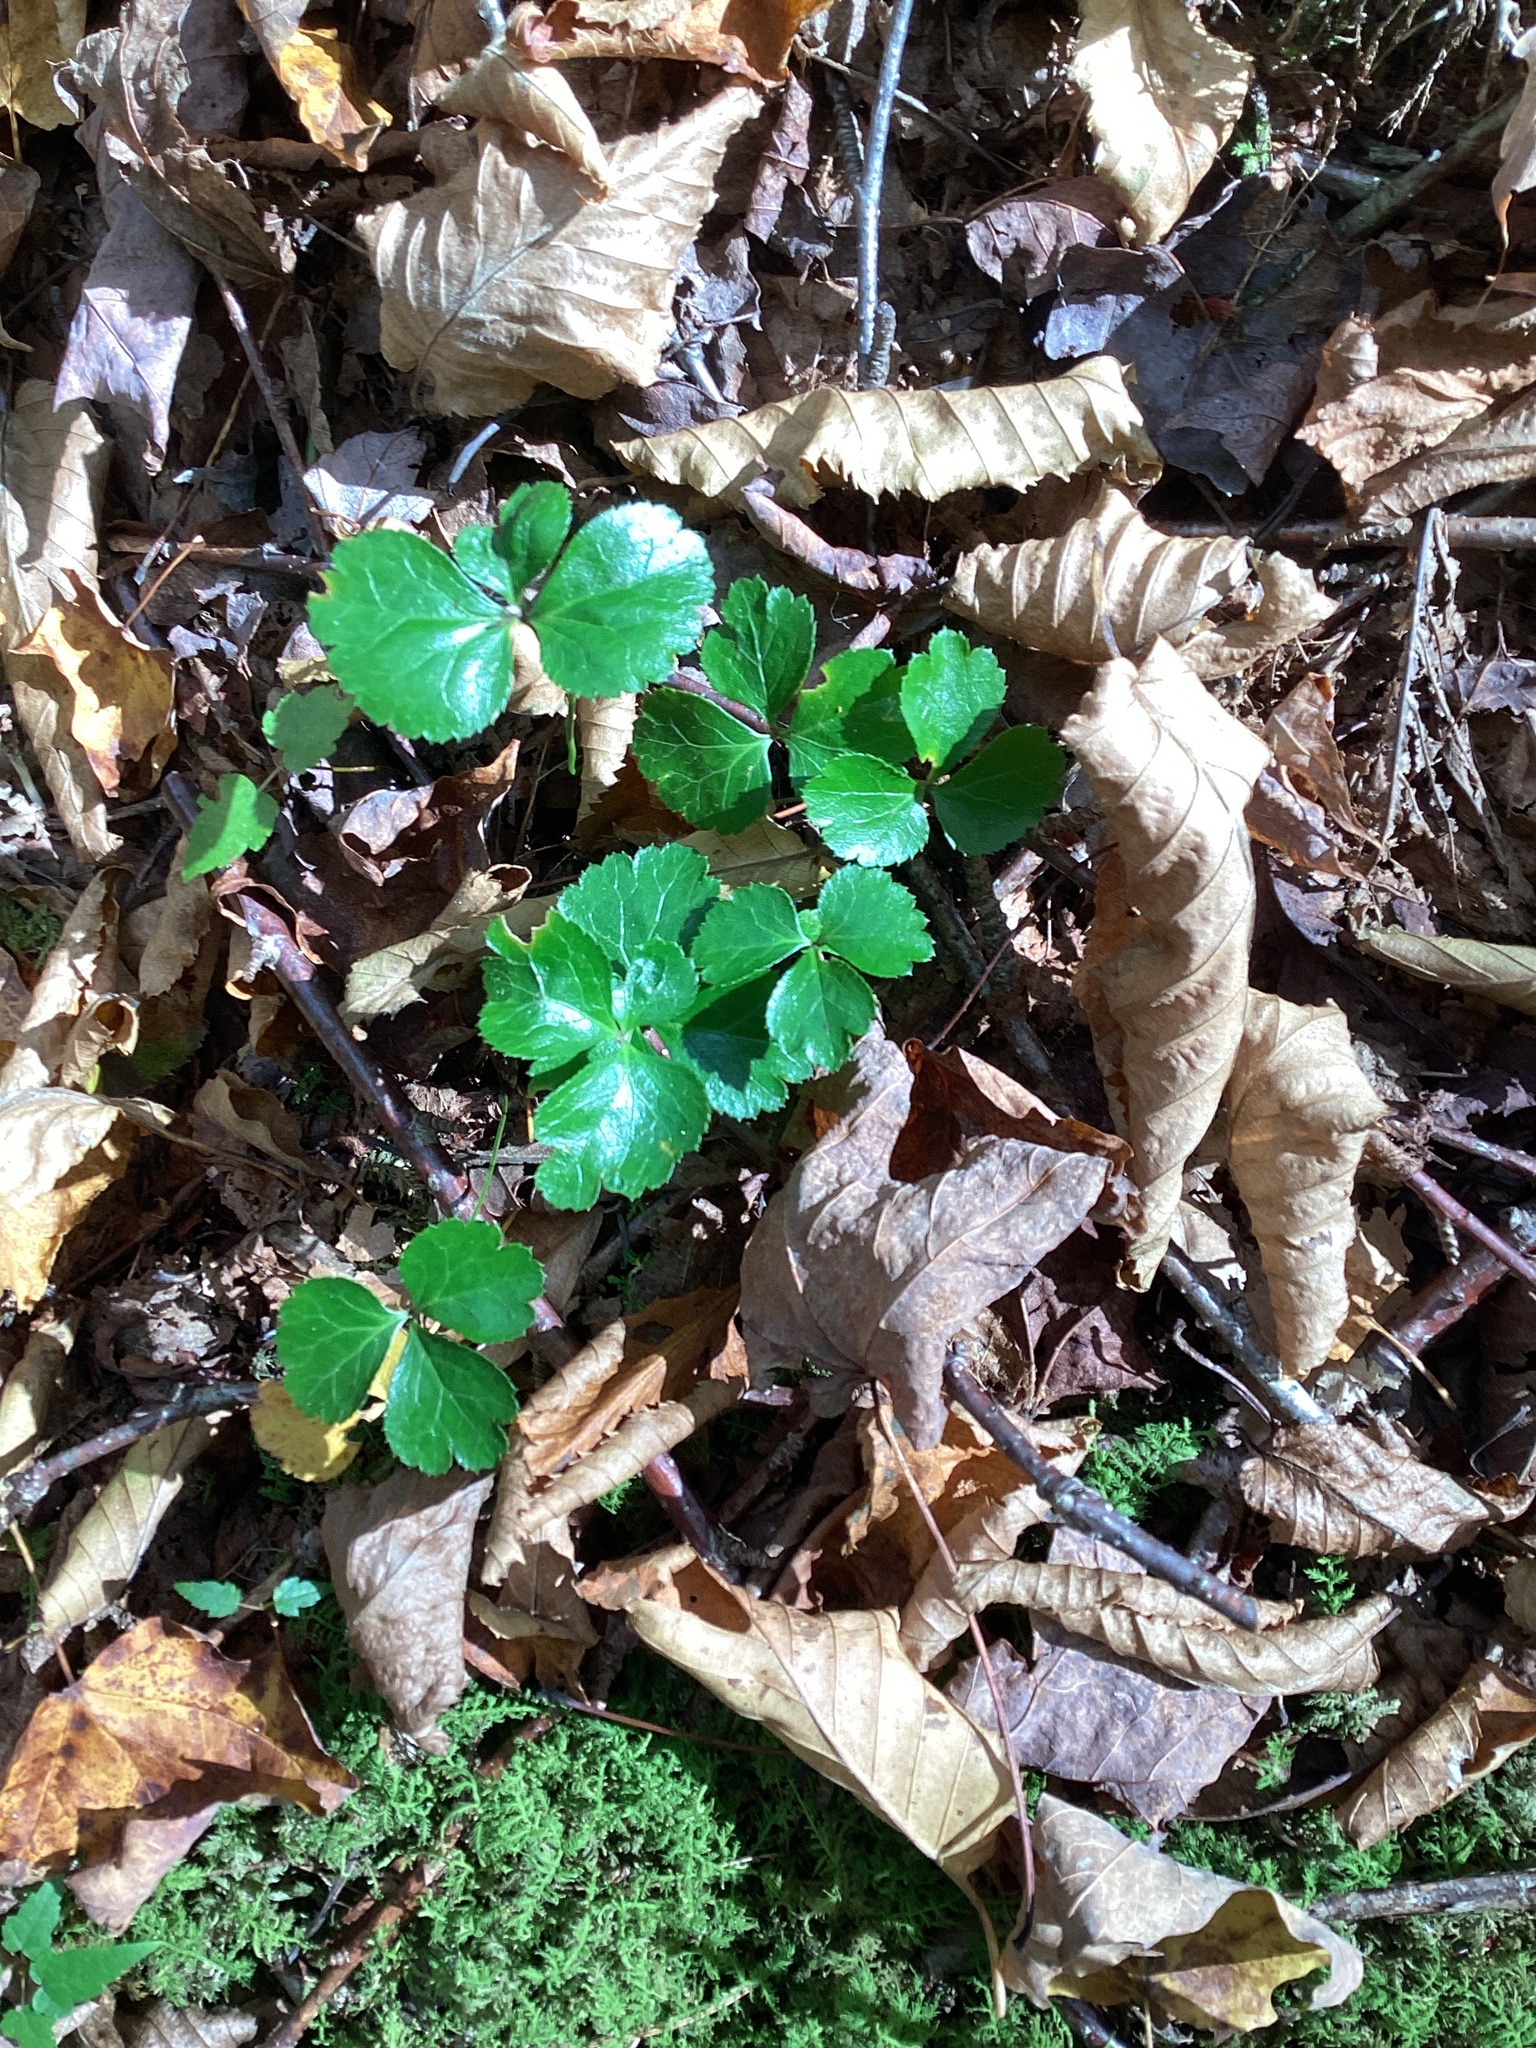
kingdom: Plantae
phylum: Tracheophyta
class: Magnoliopsida
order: Ranunculales
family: Ranunculaceae
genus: Coptis
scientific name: Coptis trifolia
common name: Canker-root
